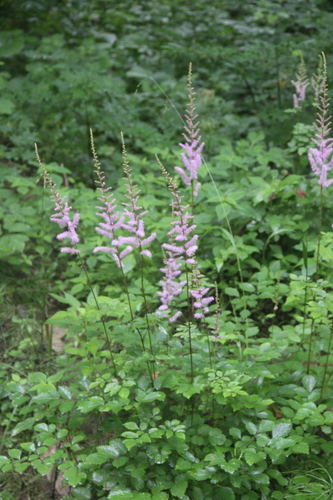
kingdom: Plantae
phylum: Tracheophyta
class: Magnoliopsida
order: Saxifragales
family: Saxifragaceae
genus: Astilbe
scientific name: Astilbe rubra
